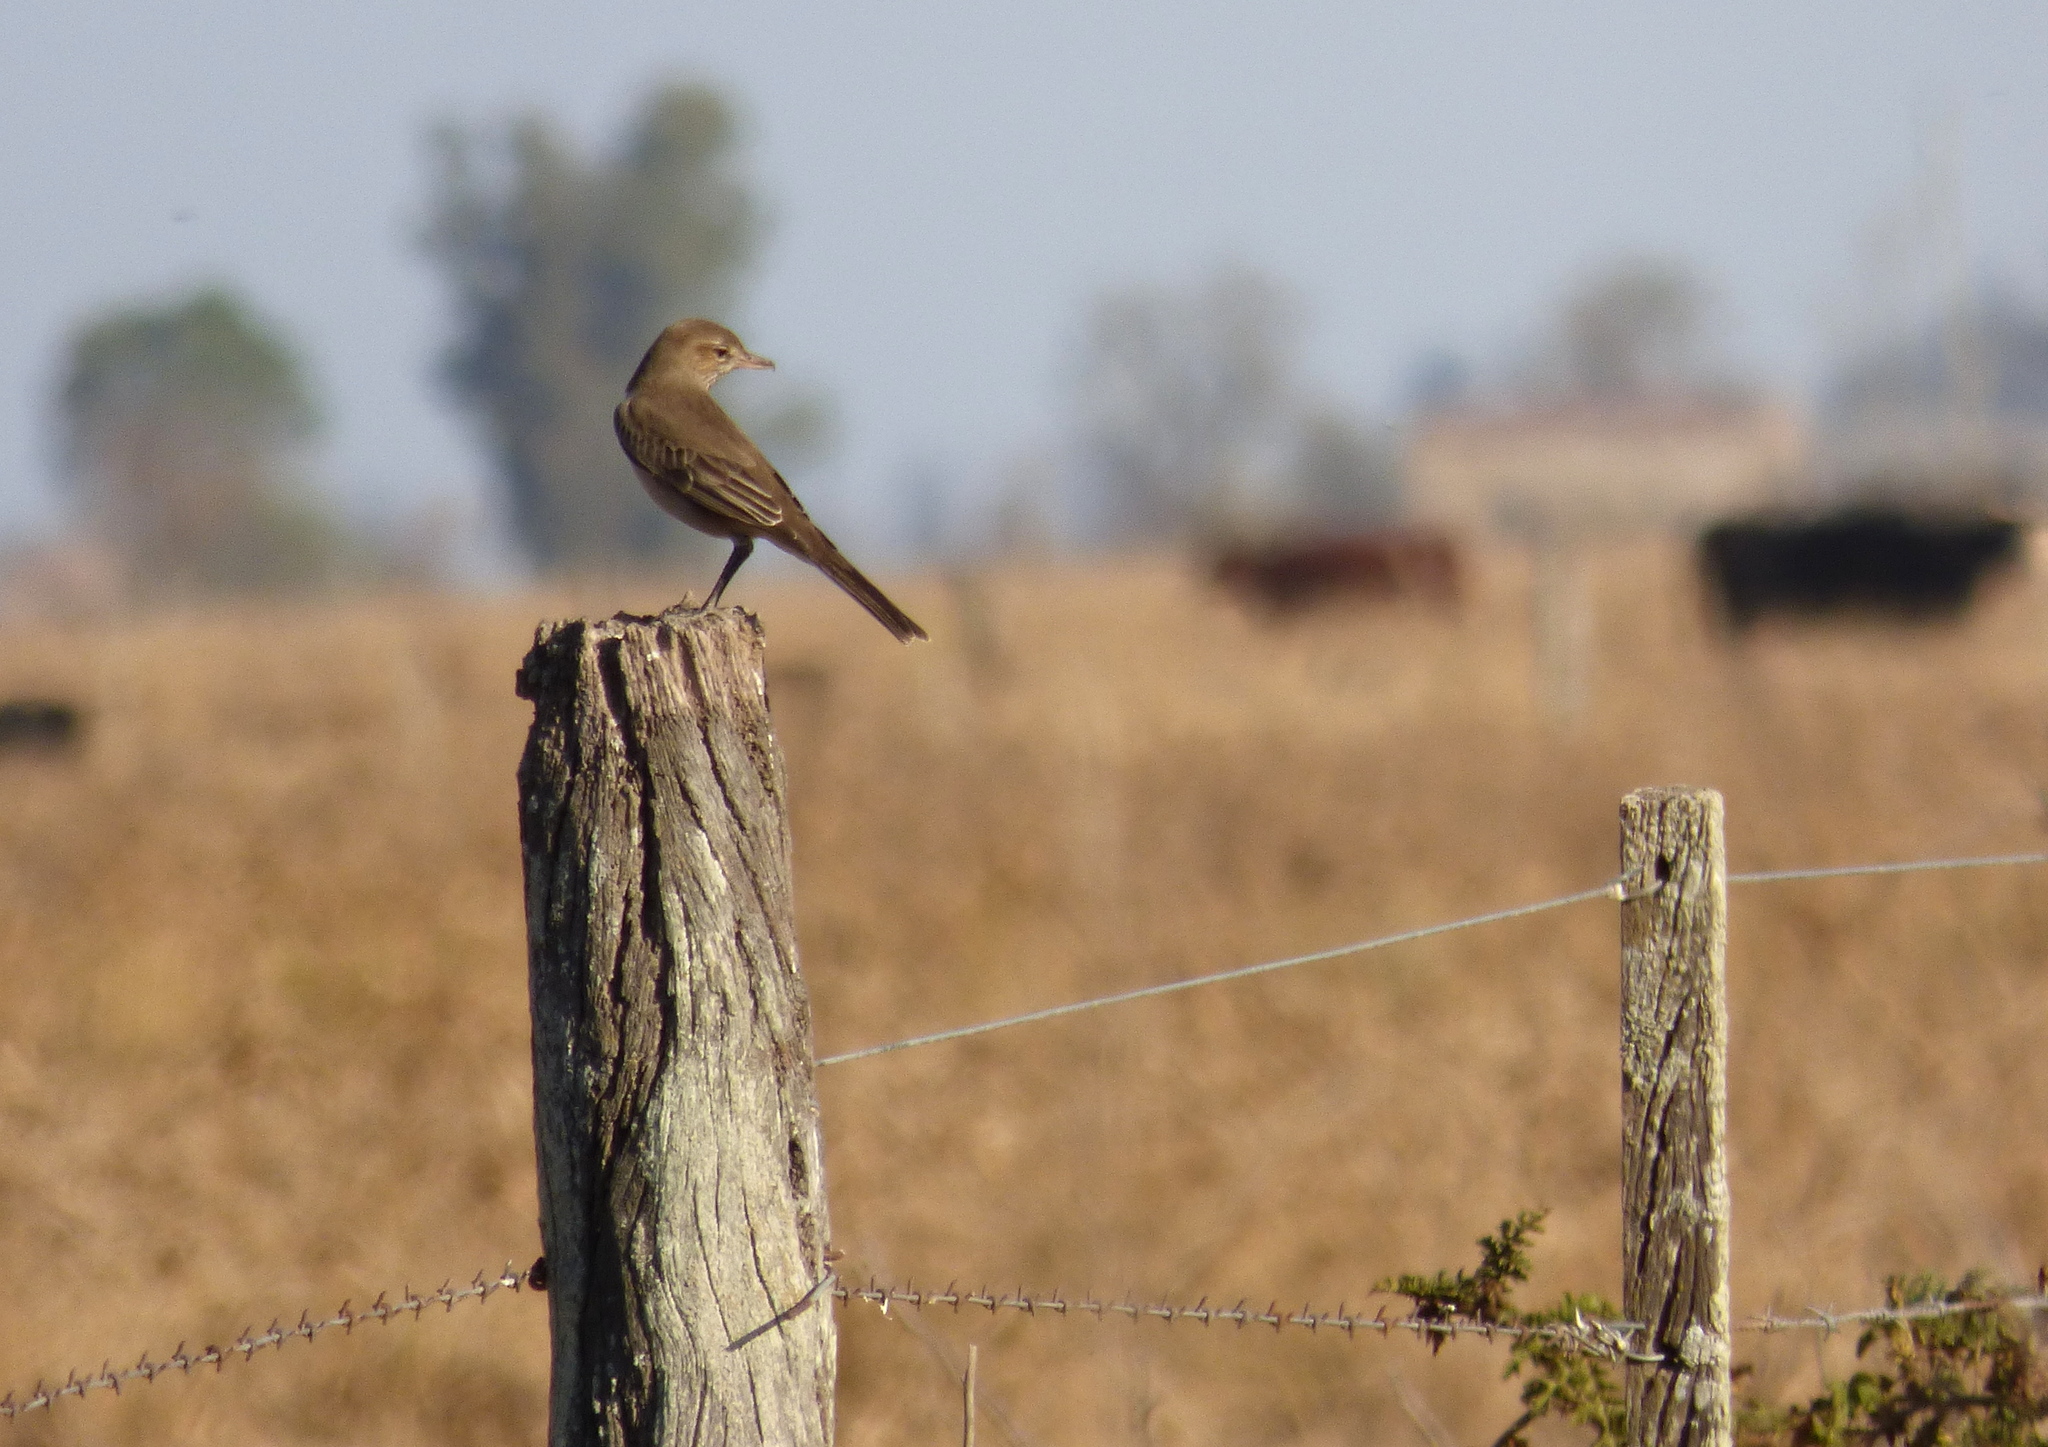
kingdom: Animalia
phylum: Chordata
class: Aves
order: Passeriformes
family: Tyrannidae
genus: Agriornis
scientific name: Agriornis micropterus
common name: Grey-bellied shrike-tyrant
